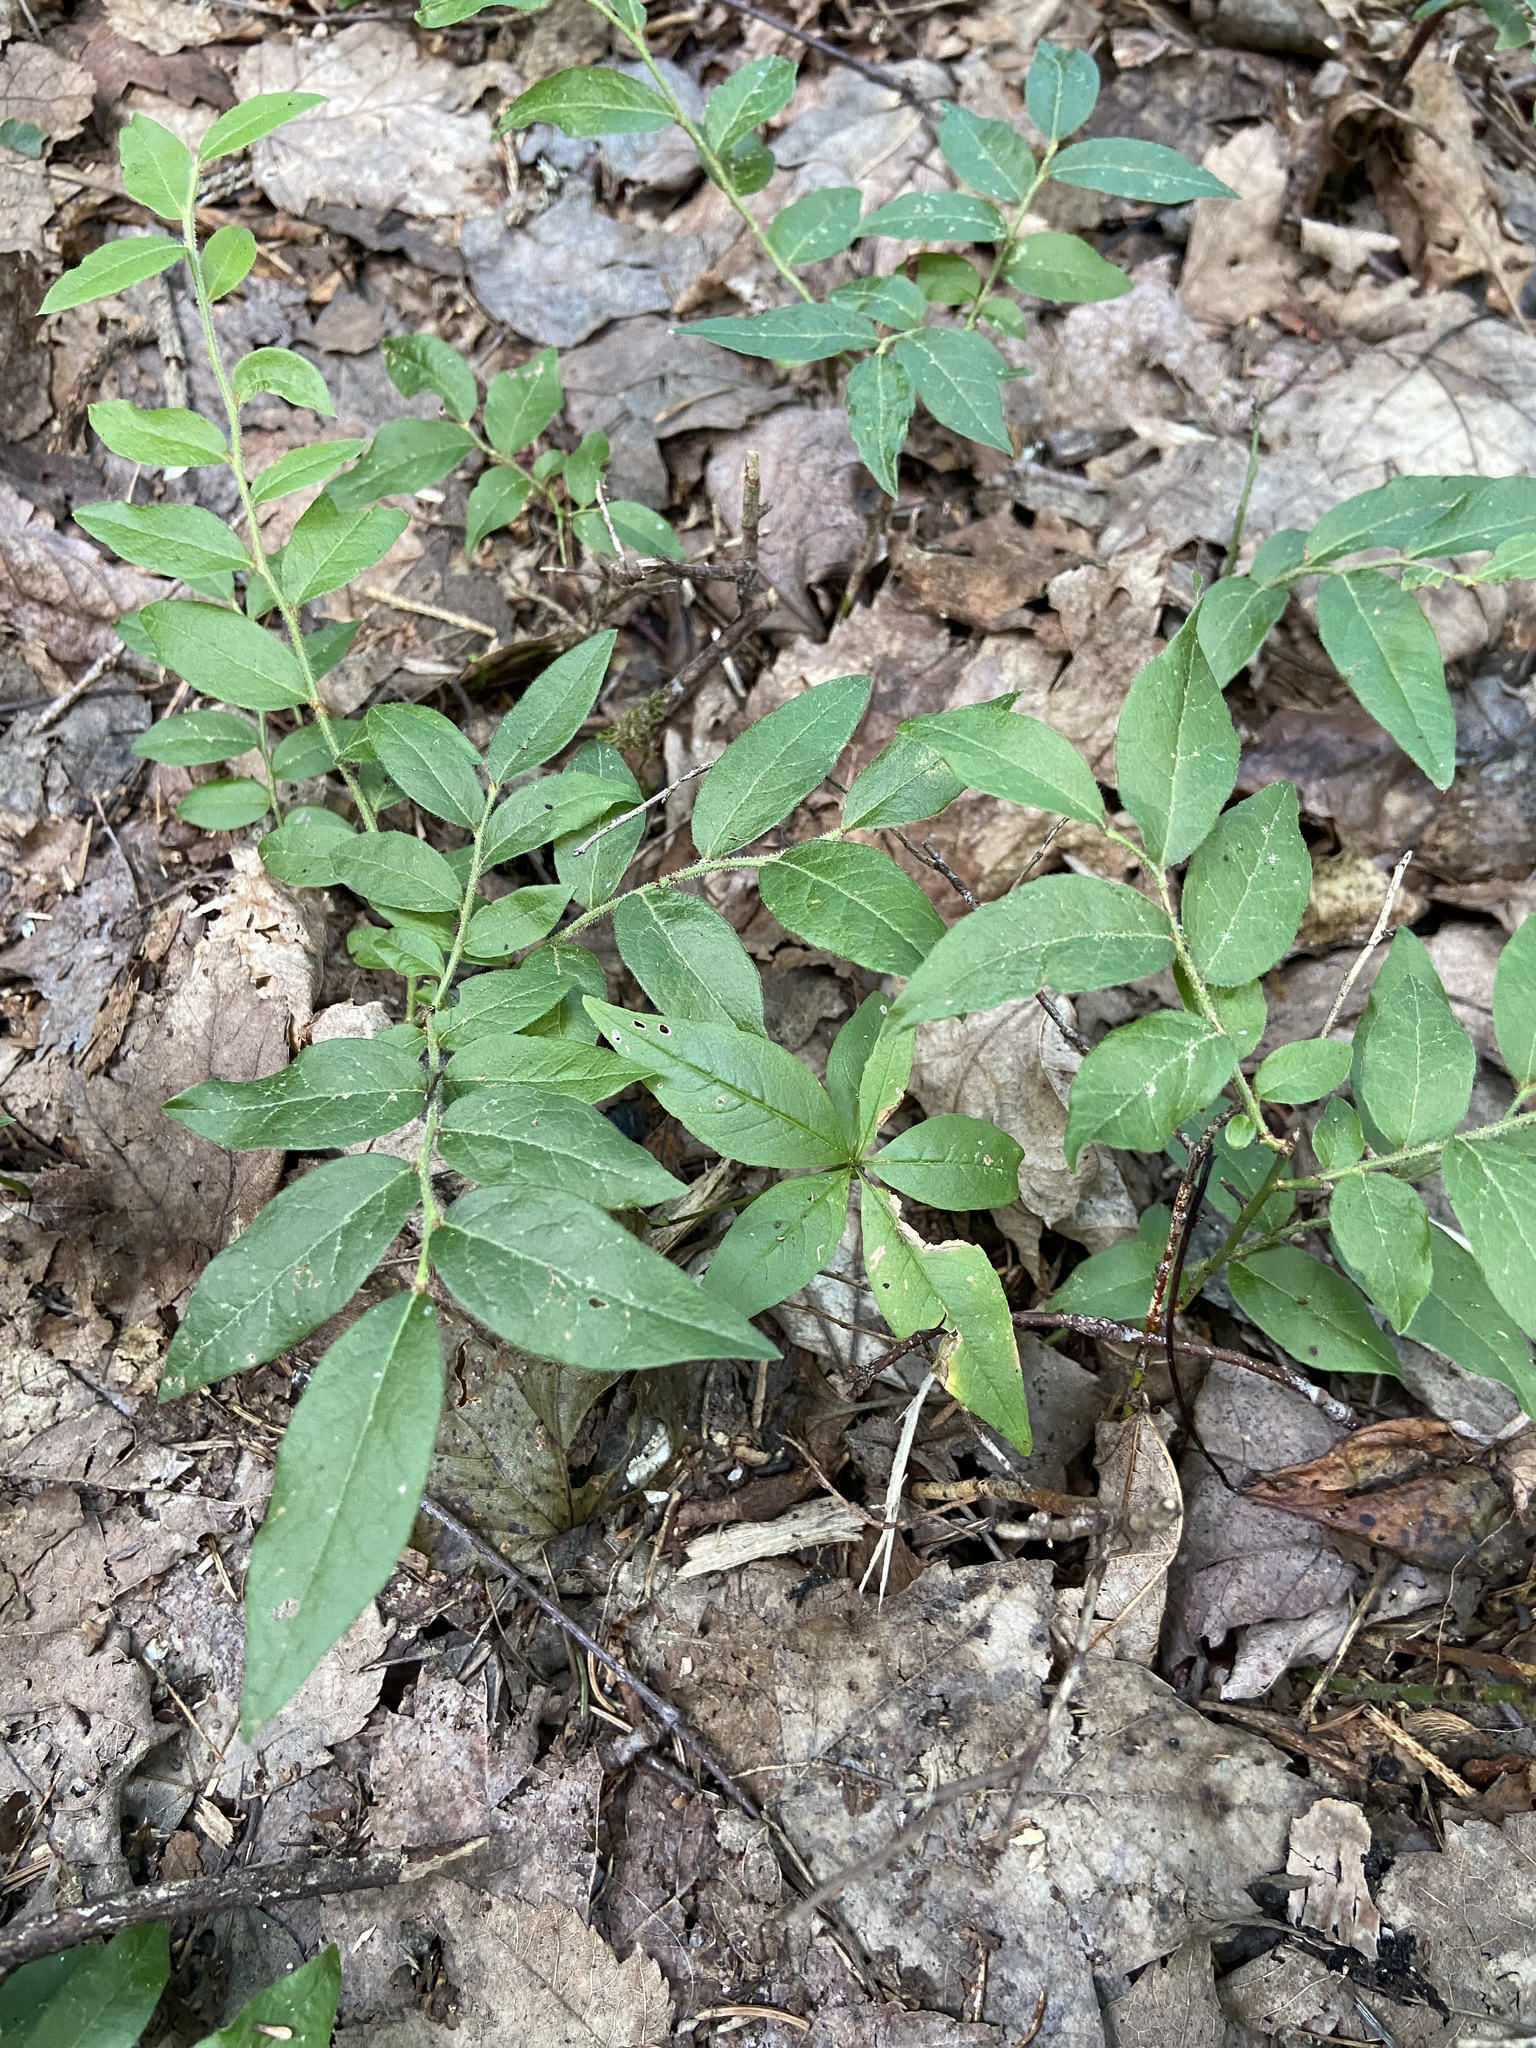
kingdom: Plantae
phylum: Tracheophyta
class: Magnoliopsida
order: Ericales
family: Ericaceae
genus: Vaccinium
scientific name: Vaccinium myrtilloides
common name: Canada blueberry
